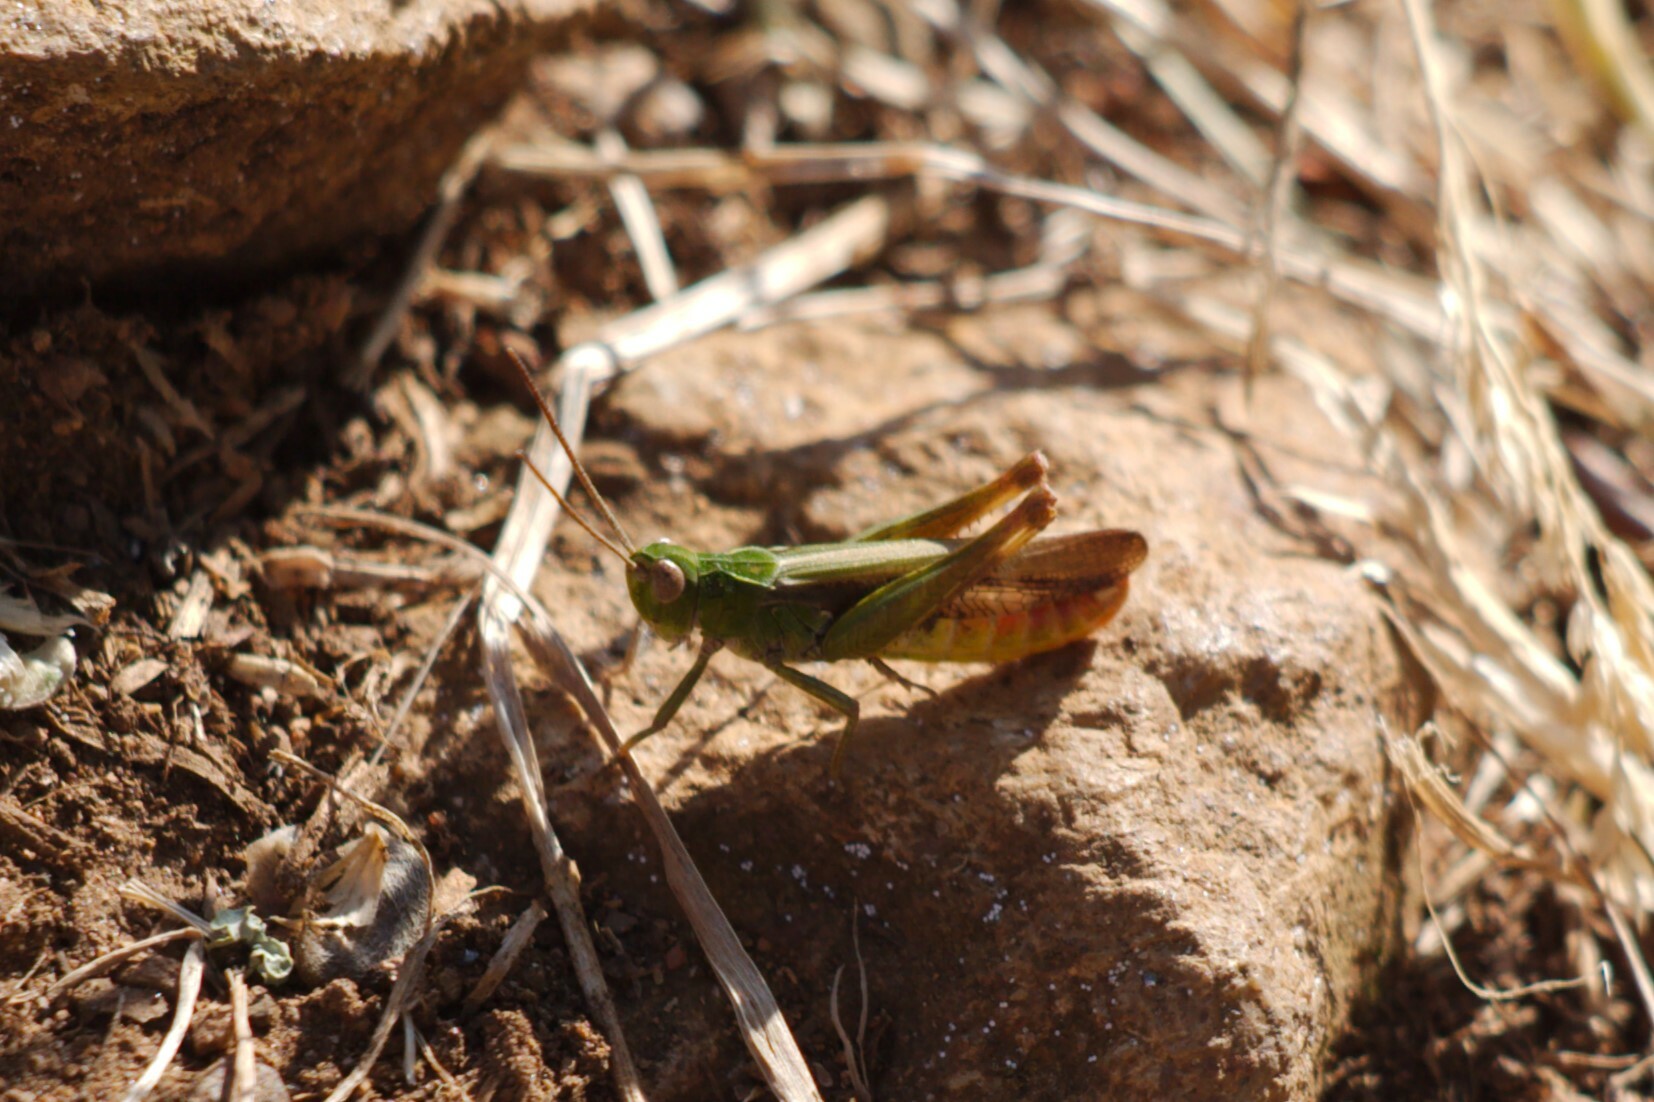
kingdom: Animalia
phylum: Arthropoda
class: Insecta
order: Orthoptera
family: Acrididae
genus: Chorthippus
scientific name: Chorthippus brunneus
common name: Field grasshopper
